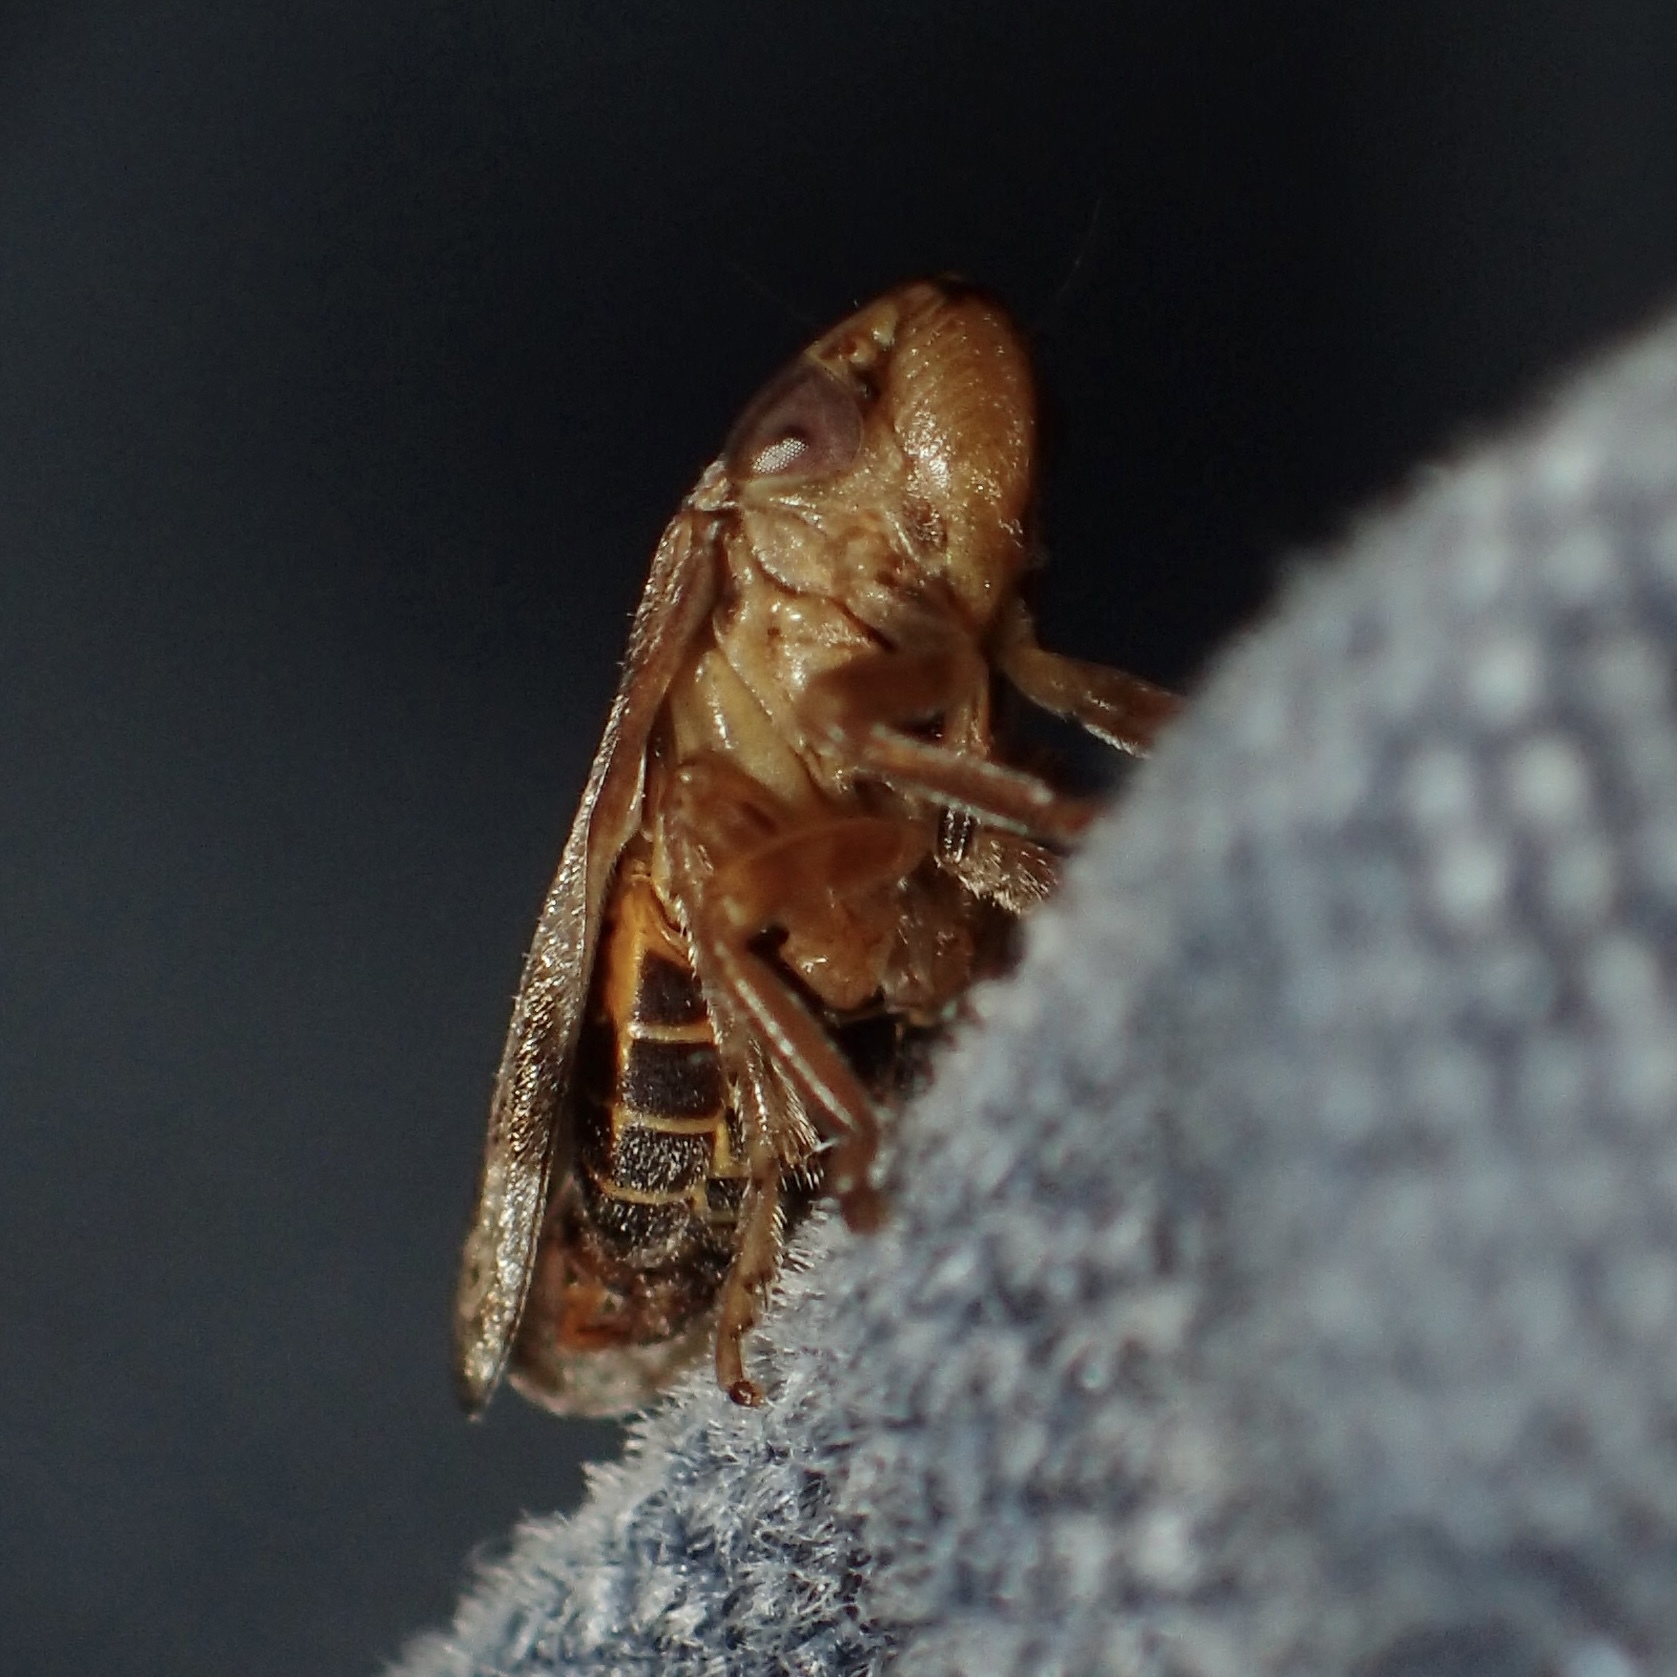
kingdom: Animalia
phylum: Arthropoda
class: Insecta
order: Hemiptera
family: Aphrophoridae
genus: Philaenus
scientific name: Philaenus spumarius
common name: Meadow spittlebug
